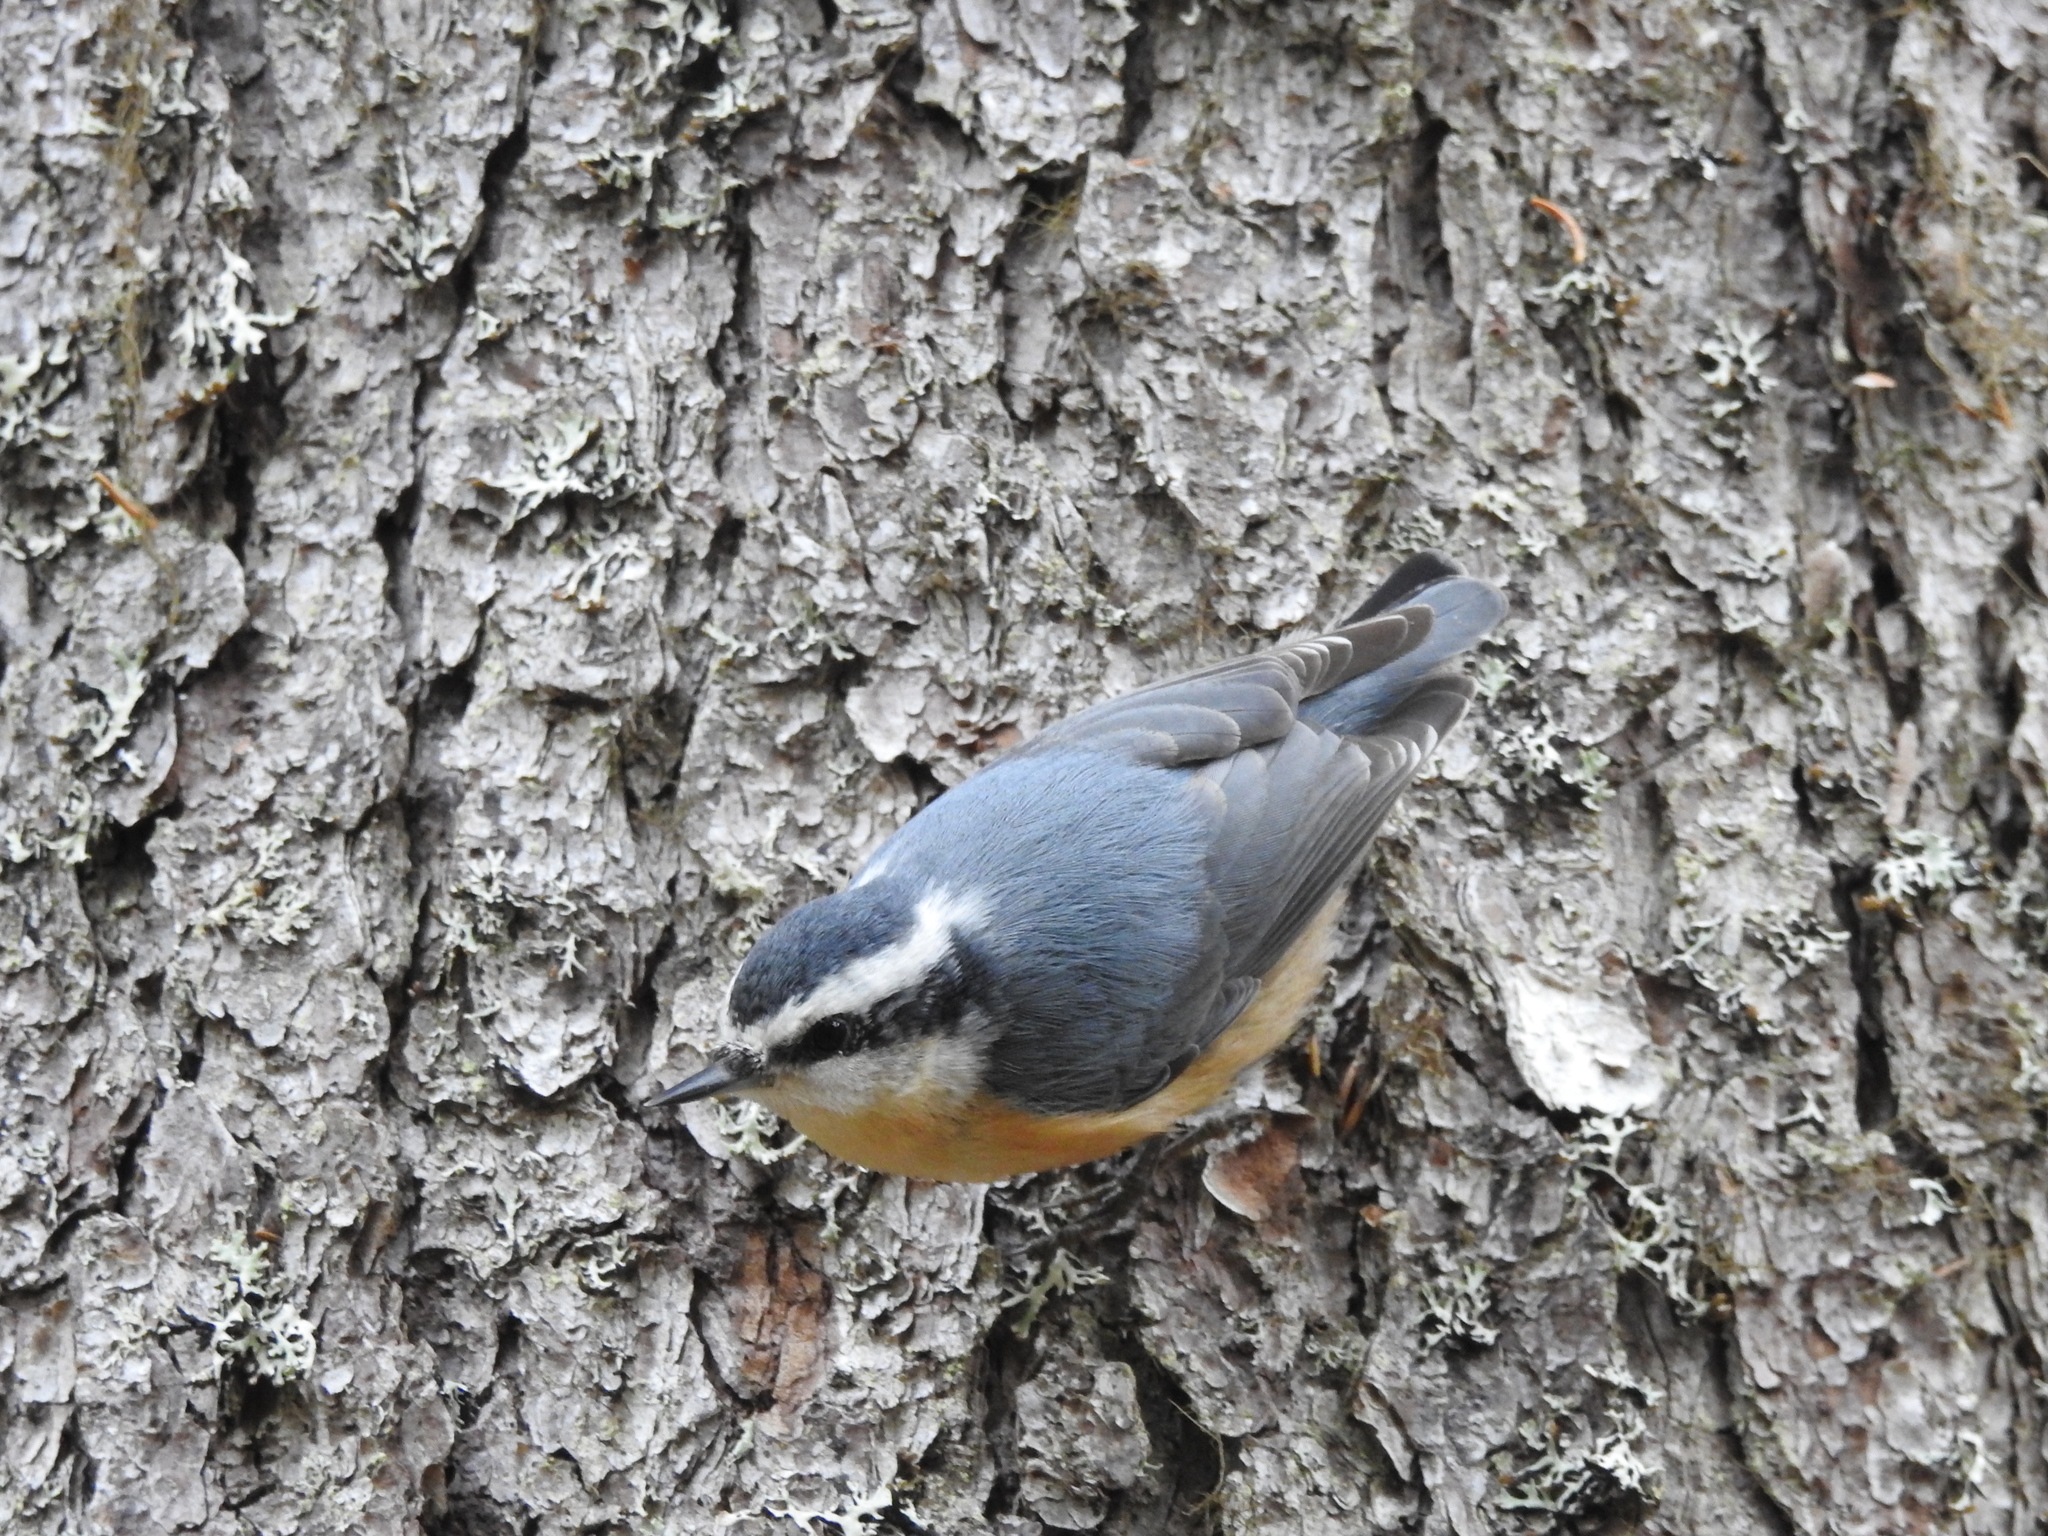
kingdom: Animalia
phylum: Chordata
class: Aves
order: Passeriformes
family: Sittidae
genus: Sitta
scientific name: Sitta canadensis
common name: Red-breasted nuthatch
